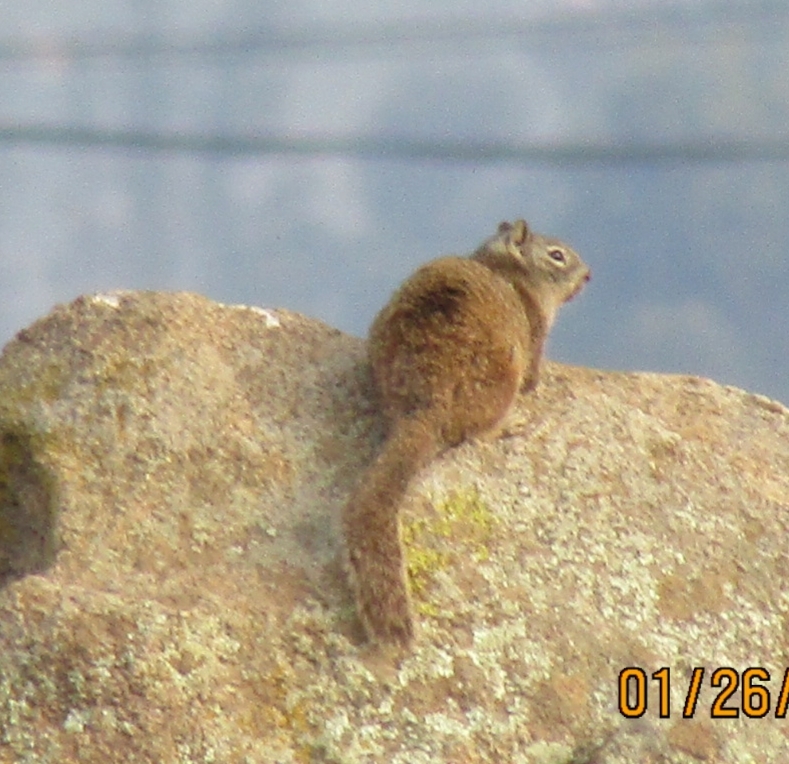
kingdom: Animalia
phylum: Chordata
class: Mammalia
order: Rodentia
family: Sciuridae
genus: Otospermophilus
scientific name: Otospermophilus beecheyi
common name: California ground squirrel
